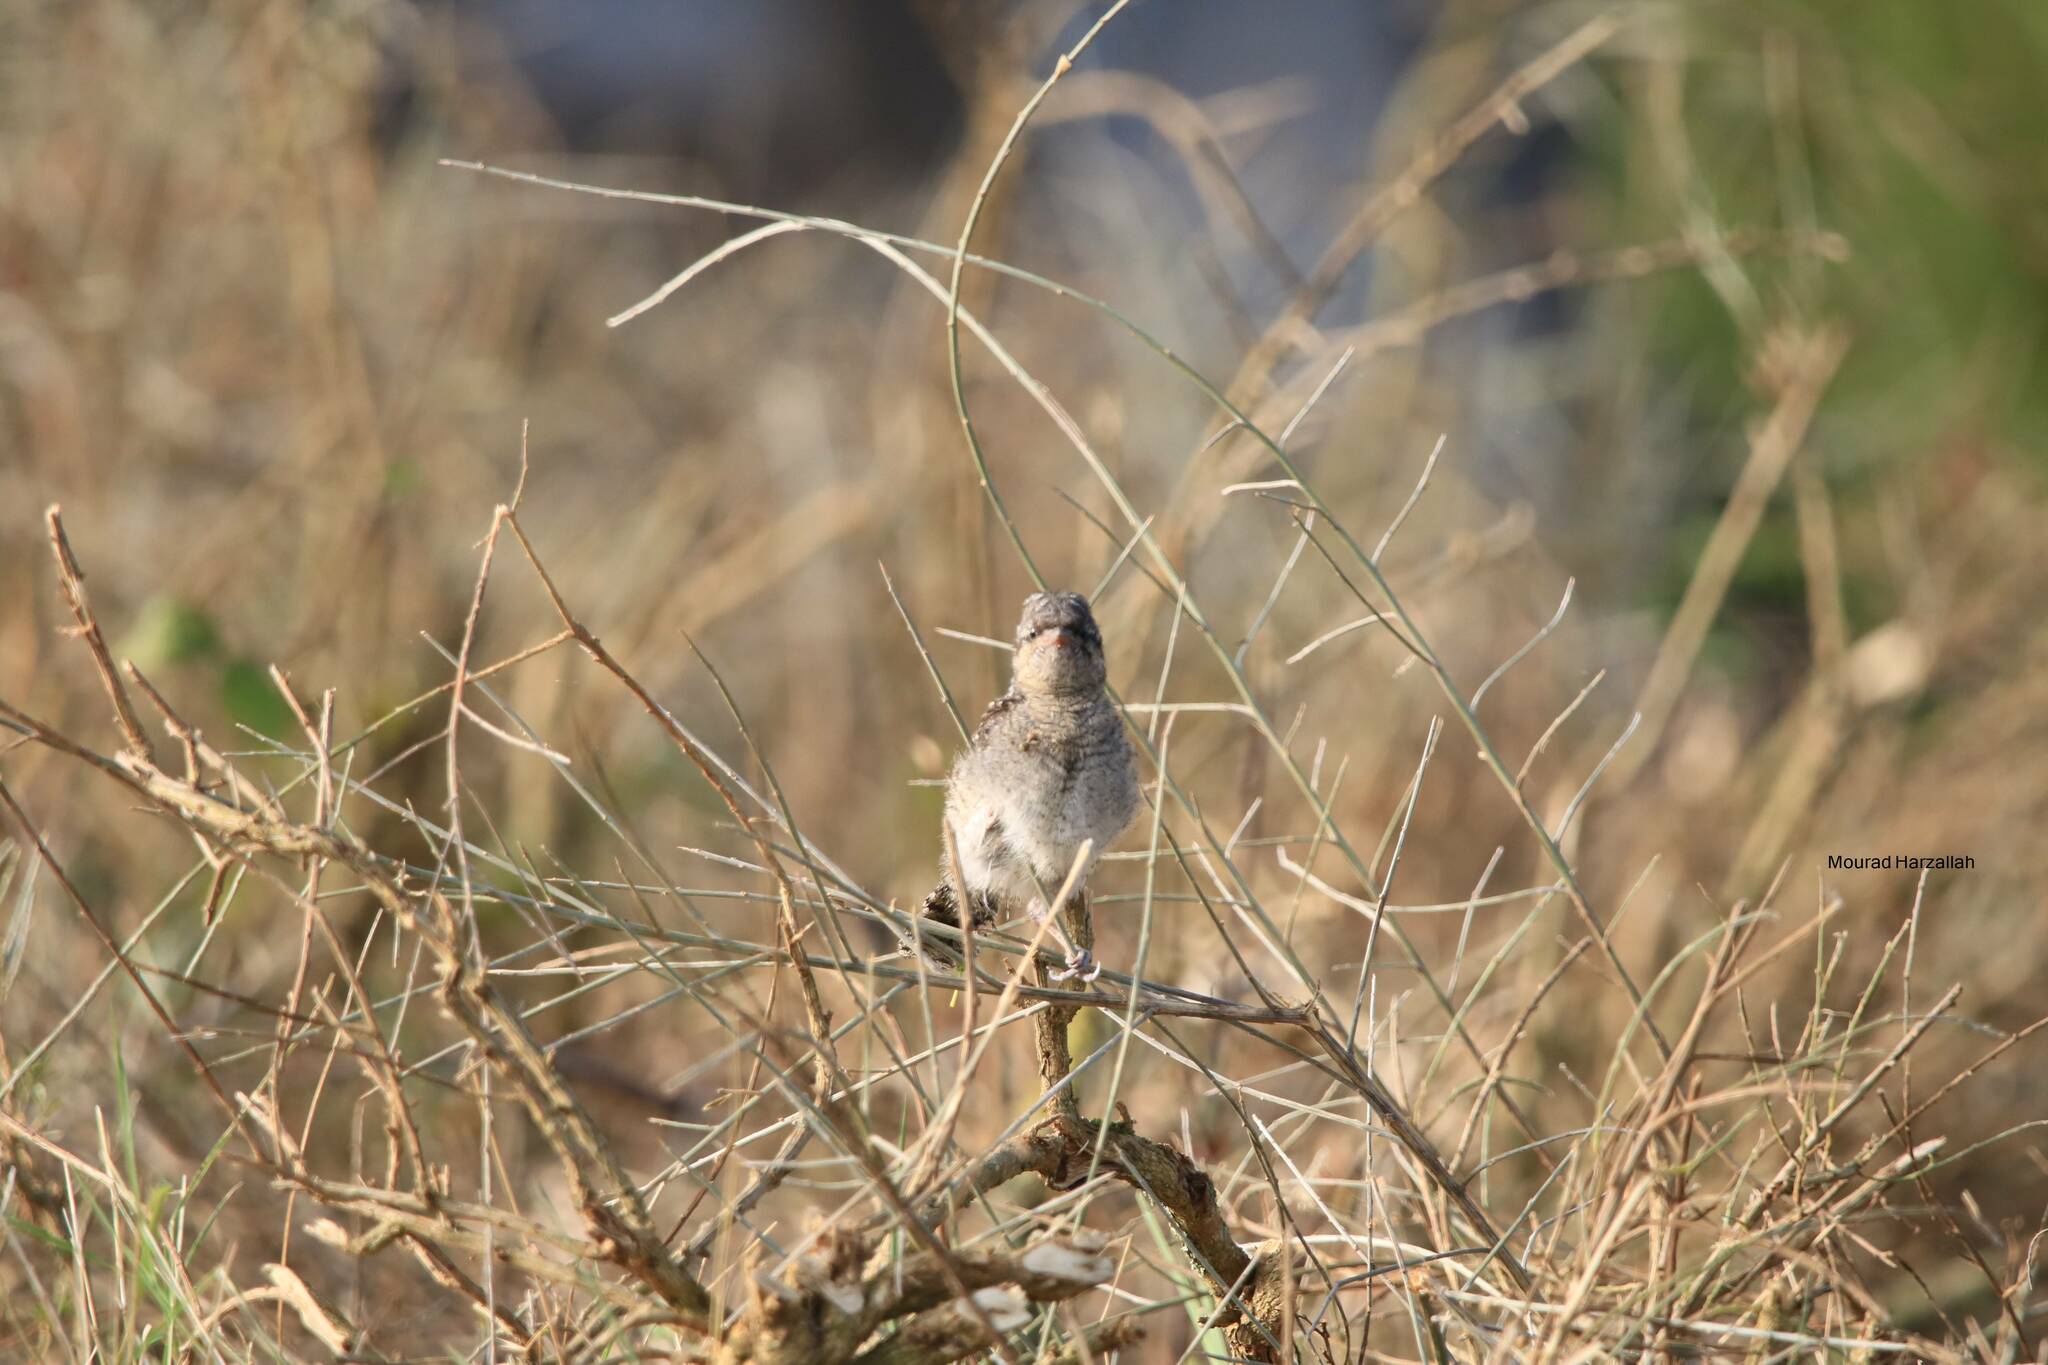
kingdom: Animalia
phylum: Chordata
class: Aves
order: Piciformes
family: Picidae
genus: Jynx
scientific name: Jynx torquilla
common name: Eurasian wryneck
